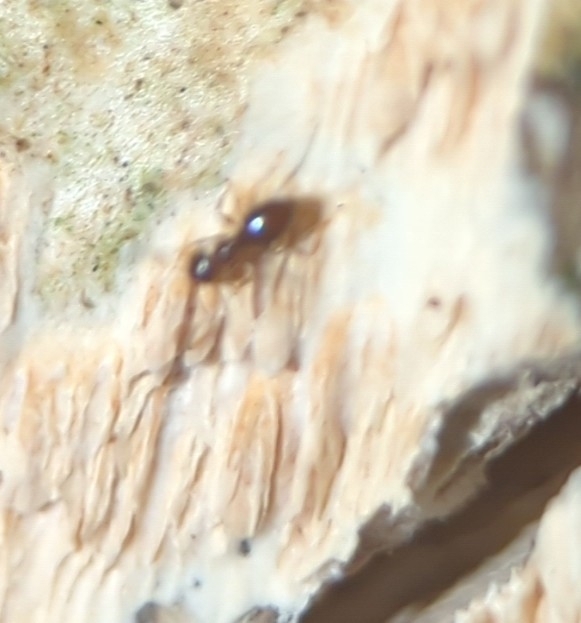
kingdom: Animalia
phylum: Arthropoda
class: Insecta
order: Hymenoptera
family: Formicidae
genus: Brachymyrmex
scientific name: Brachymyrmex patagonicus
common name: Dark rover ant
